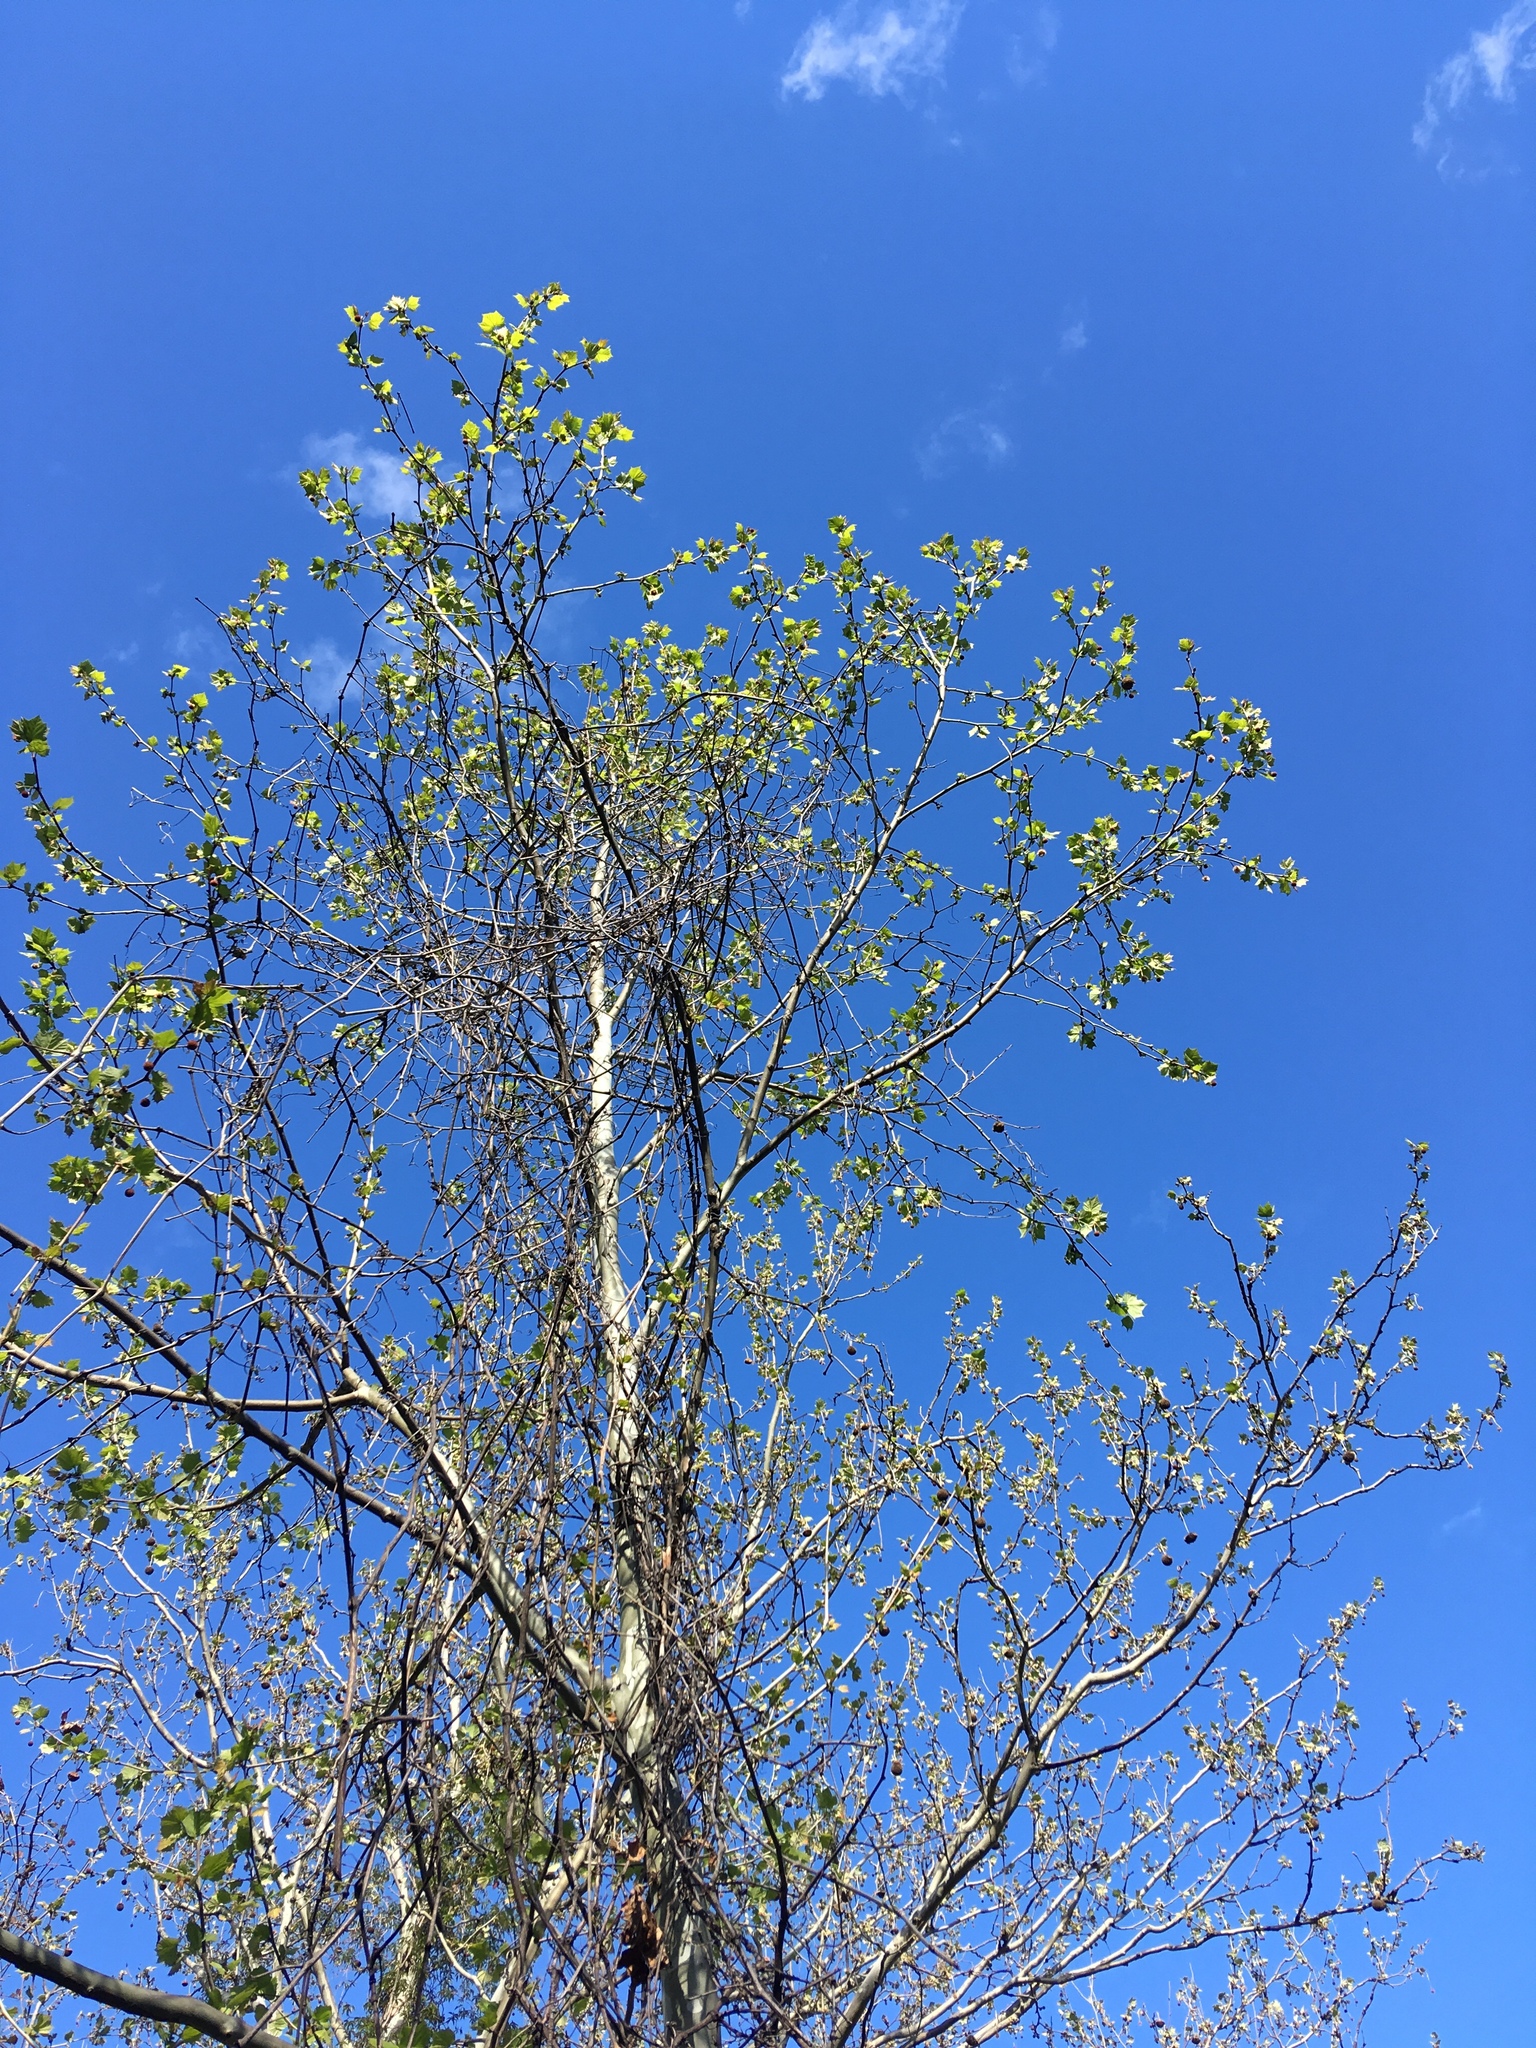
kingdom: Plantae
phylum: Tracheophyta
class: Magnoliopsida
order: Proteales
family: Platanaceae
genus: Platanus
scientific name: Platanus occidentalis
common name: American sycamore
